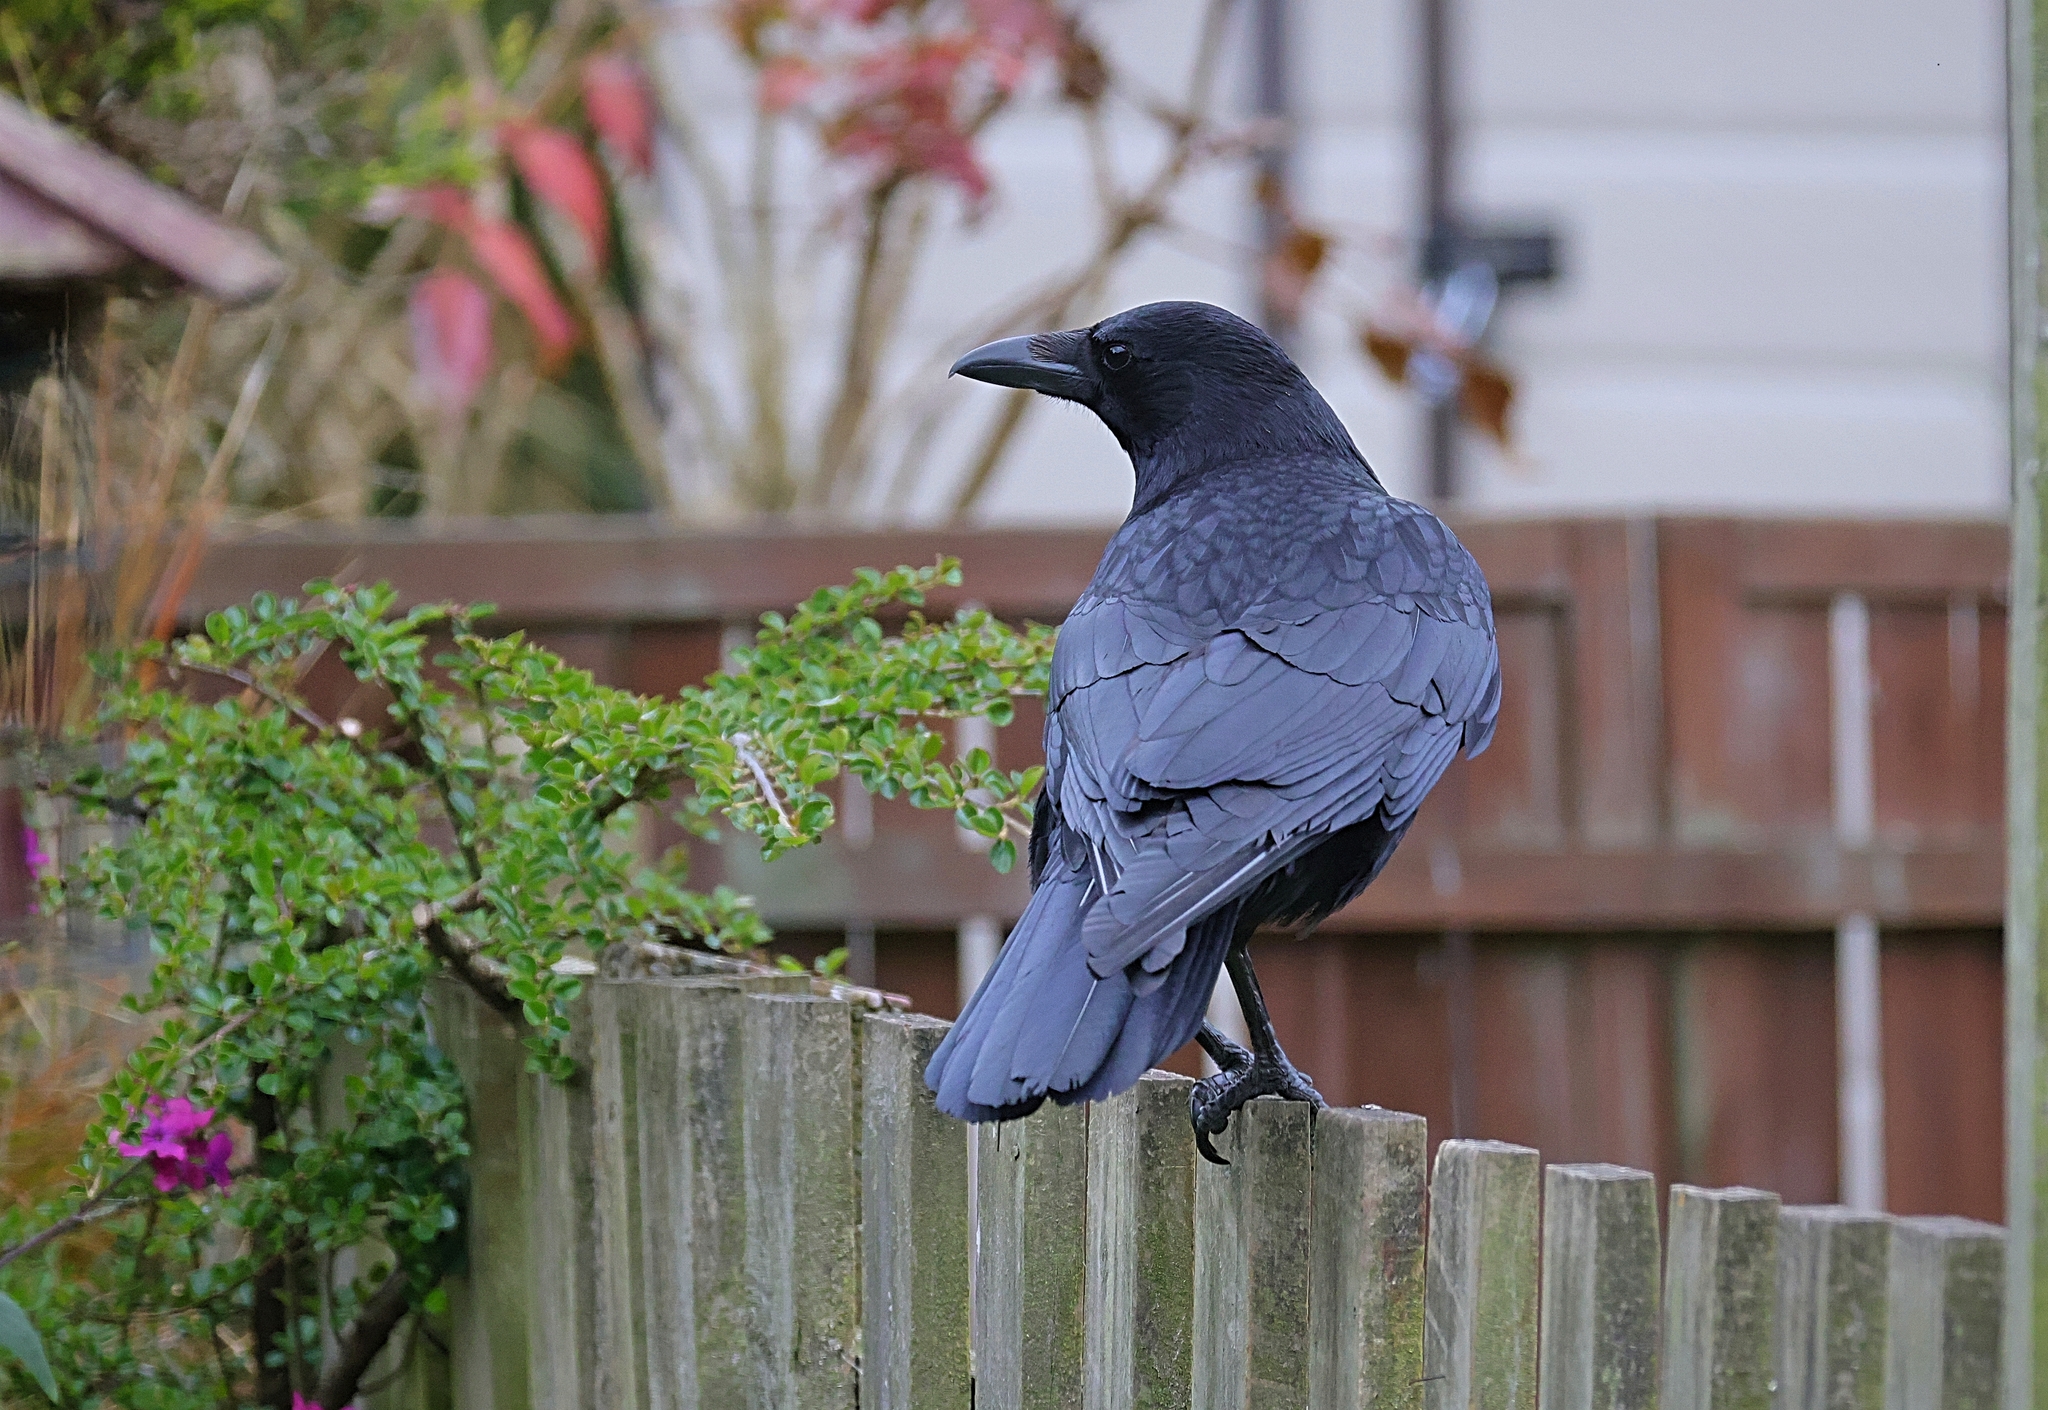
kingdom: Animalia
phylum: Chordata
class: Aves
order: Passeriformes
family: Corvidae
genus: Corvus
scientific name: Corvus corone
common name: Carrion crow
